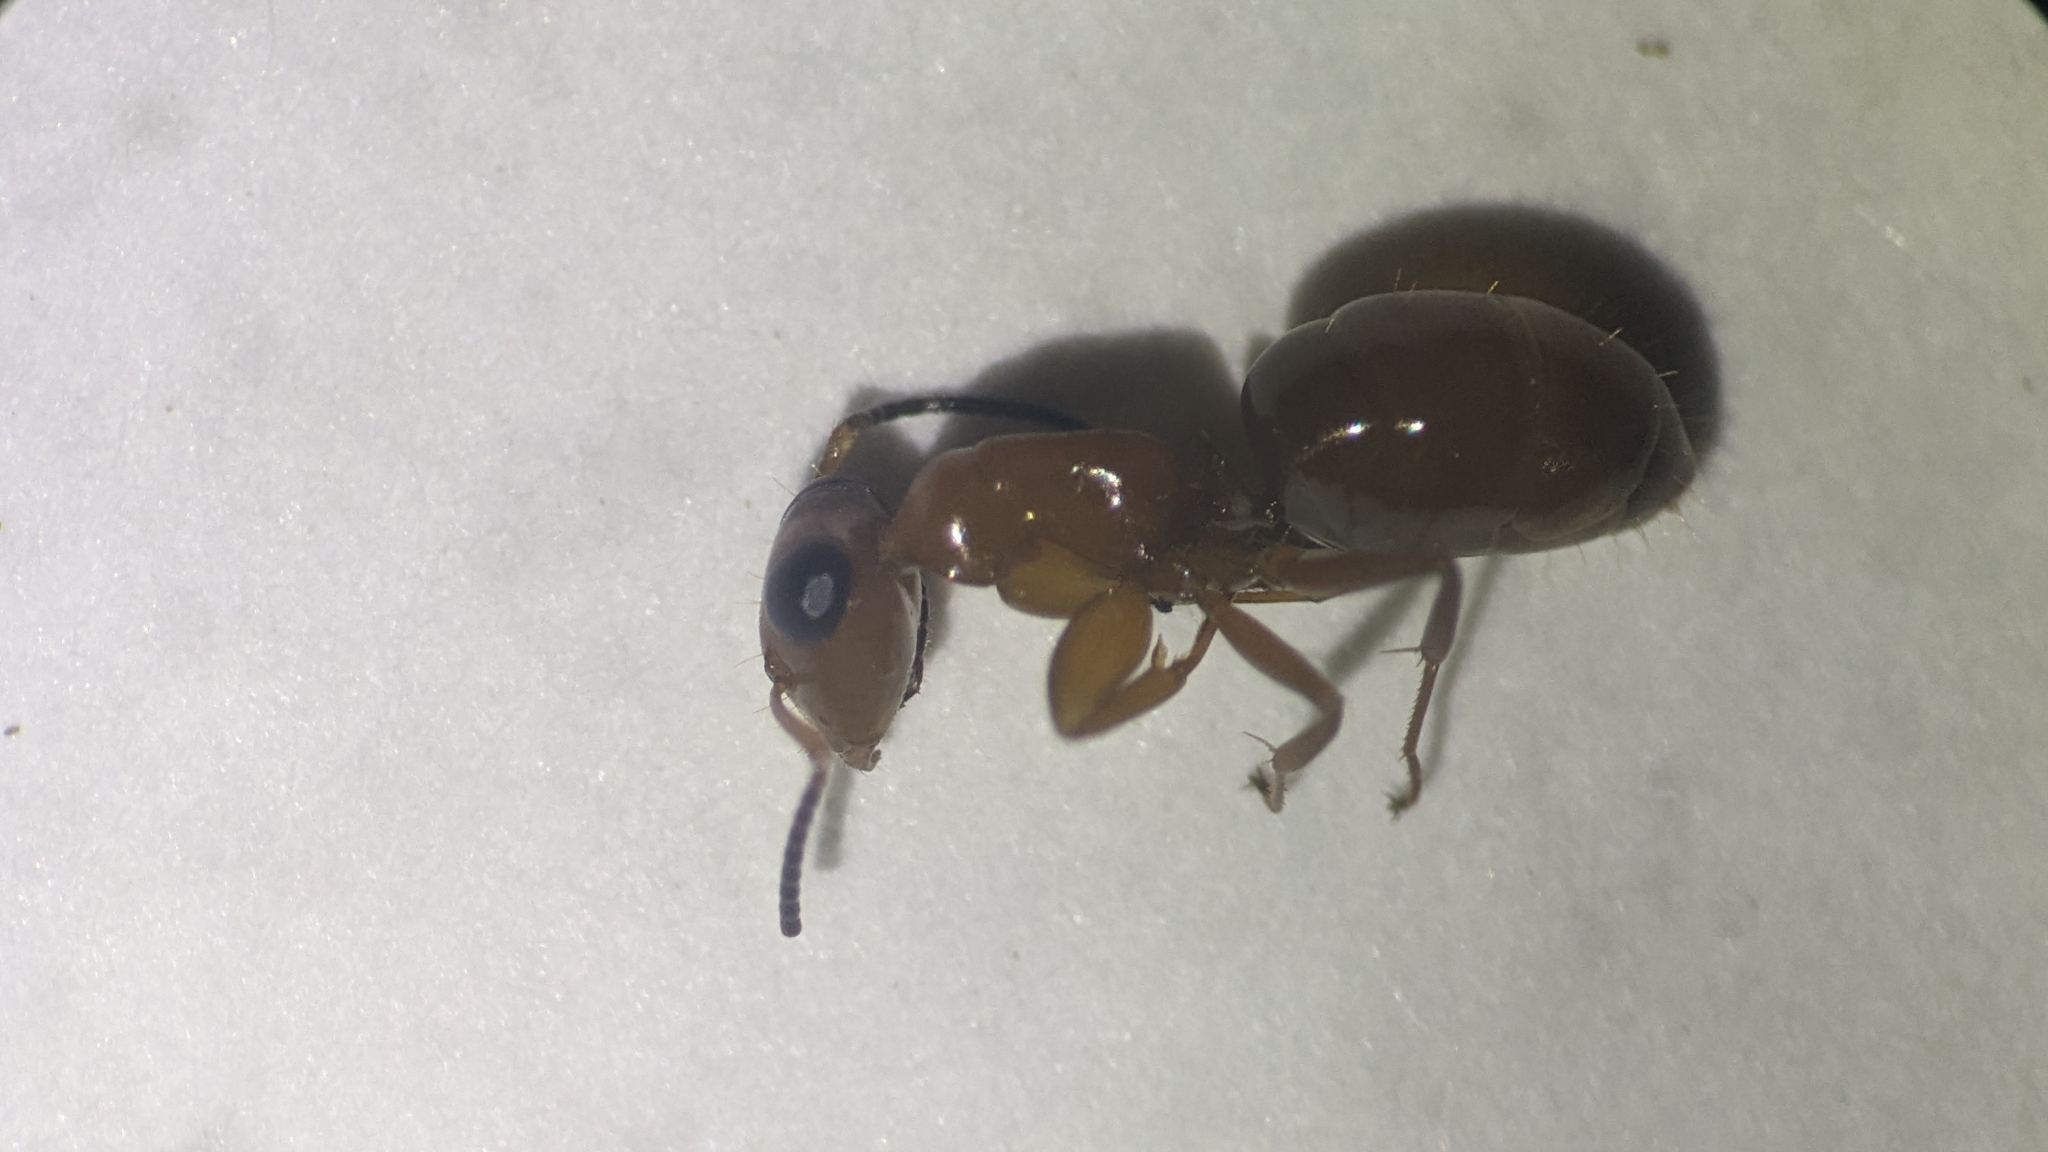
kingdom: Animalia
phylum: Arthropoda
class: Insecta
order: Hymenoptera
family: Formicidae
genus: Opisthopsis
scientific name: Opisthopsis manni
